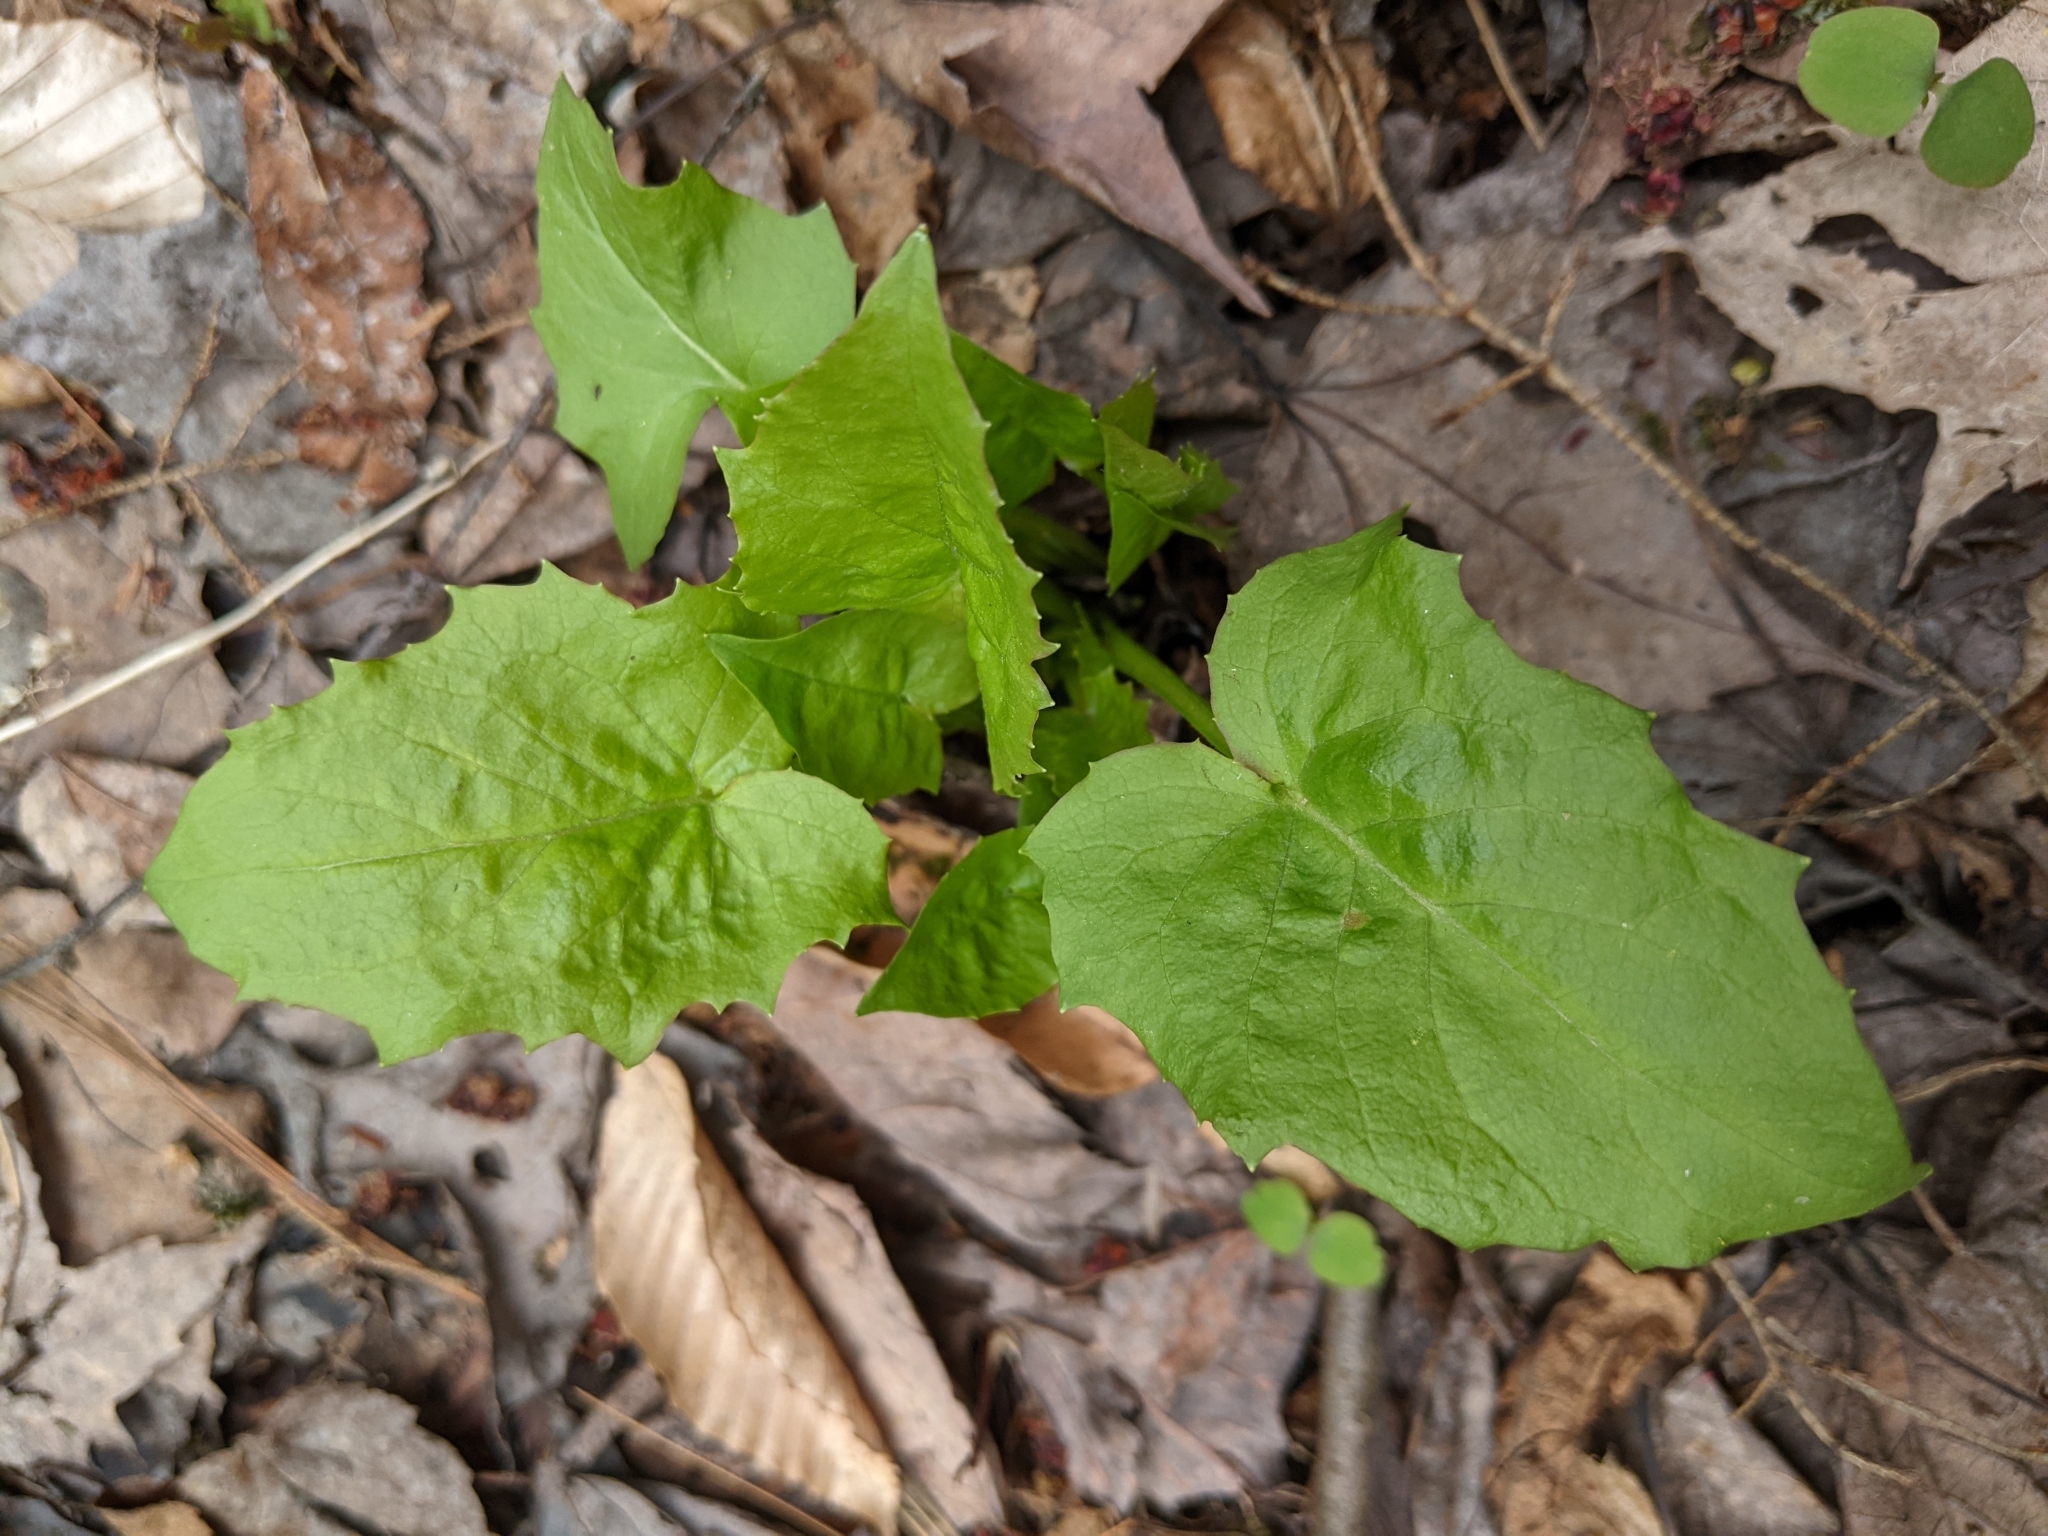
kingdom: Plantae
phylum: Tracheophyta
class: Magnoliopsida
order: Asterales
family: Asteraceae
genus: Nabalus
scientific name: Nabalus
